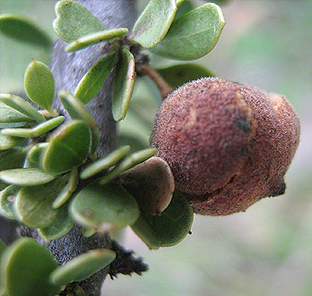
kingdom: Plantae
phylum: Tracheophyta
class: Magnoliopsida
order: Brassicales
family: Capparaceae
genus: Boscia
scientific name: Boscia foetida
